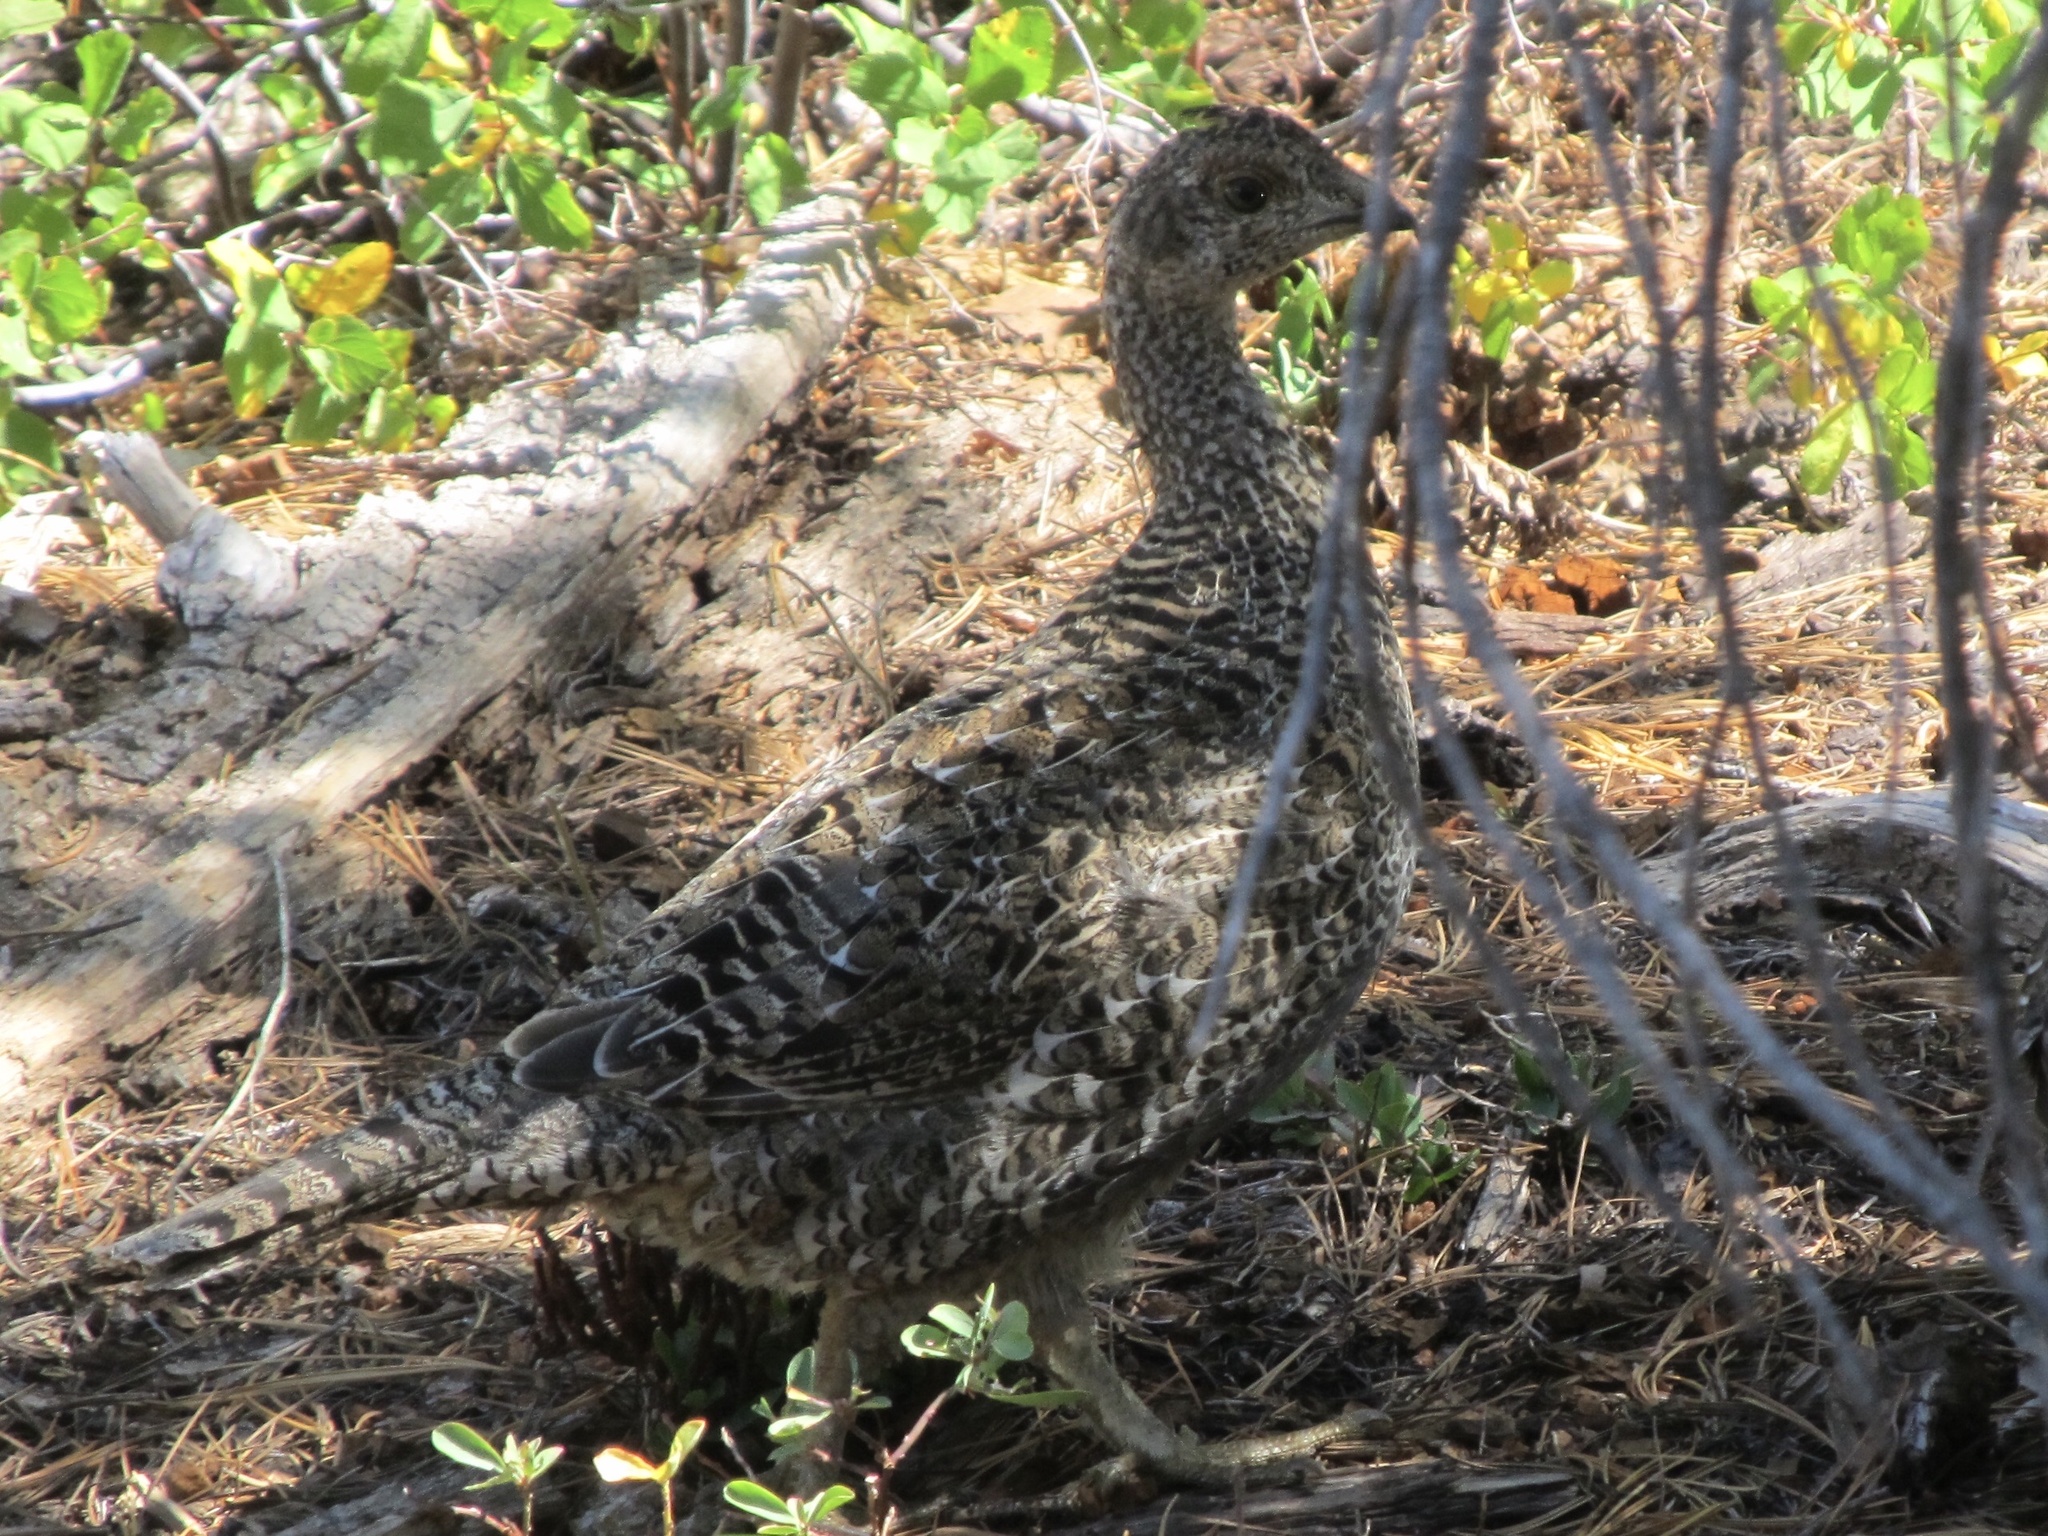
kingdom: Animalia
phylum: Chordata
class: Aves
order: Galliformes
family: Phasianidae
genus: Dendragapus
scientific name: Dendragapus fuliginosus
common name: Sooty grouse
